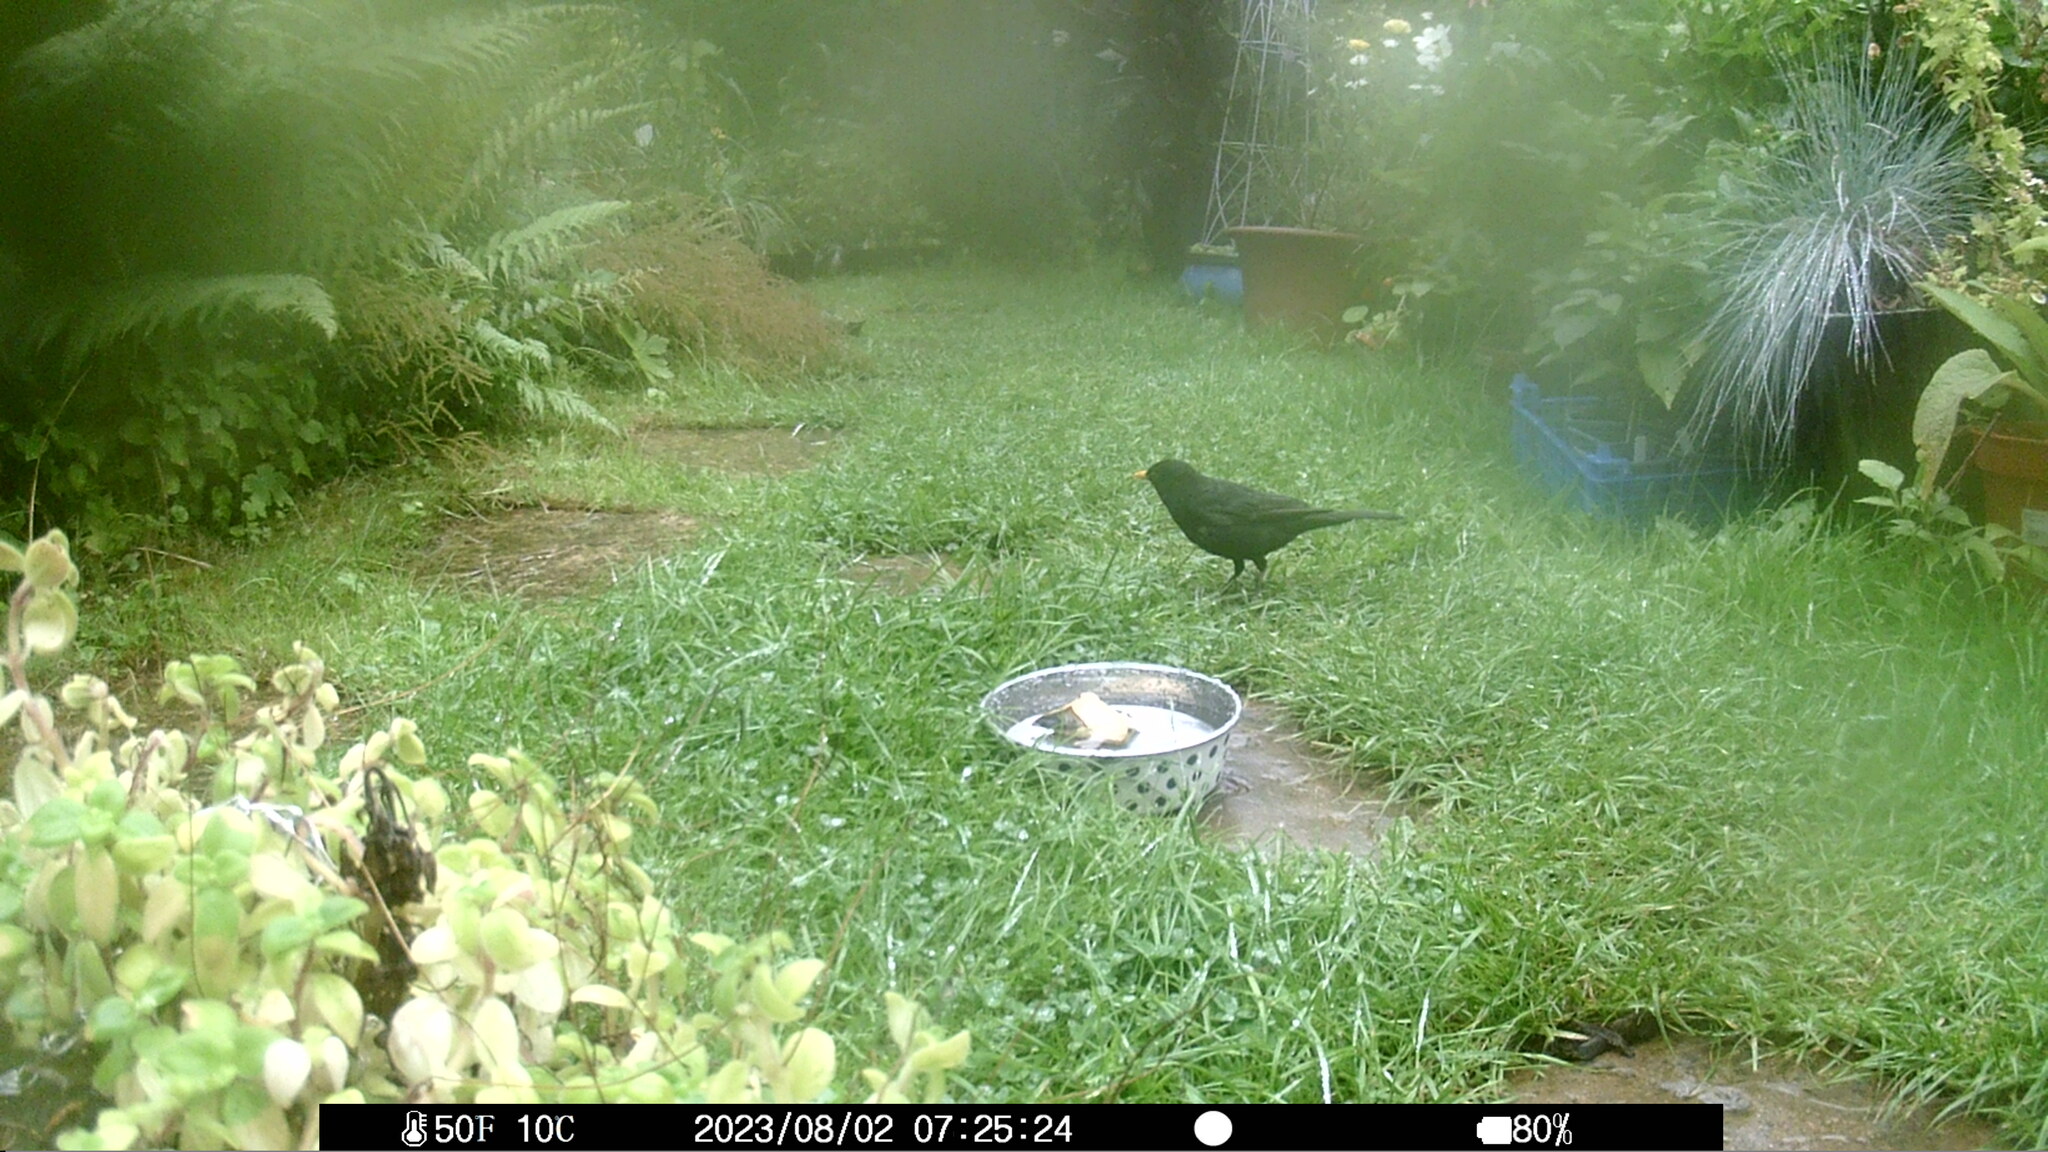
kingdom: Animalia
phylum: Chordata
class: Aves
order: Passeriformes
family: Turdidae
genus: Turdus
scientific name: Turdus merula
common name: Common blackbird
